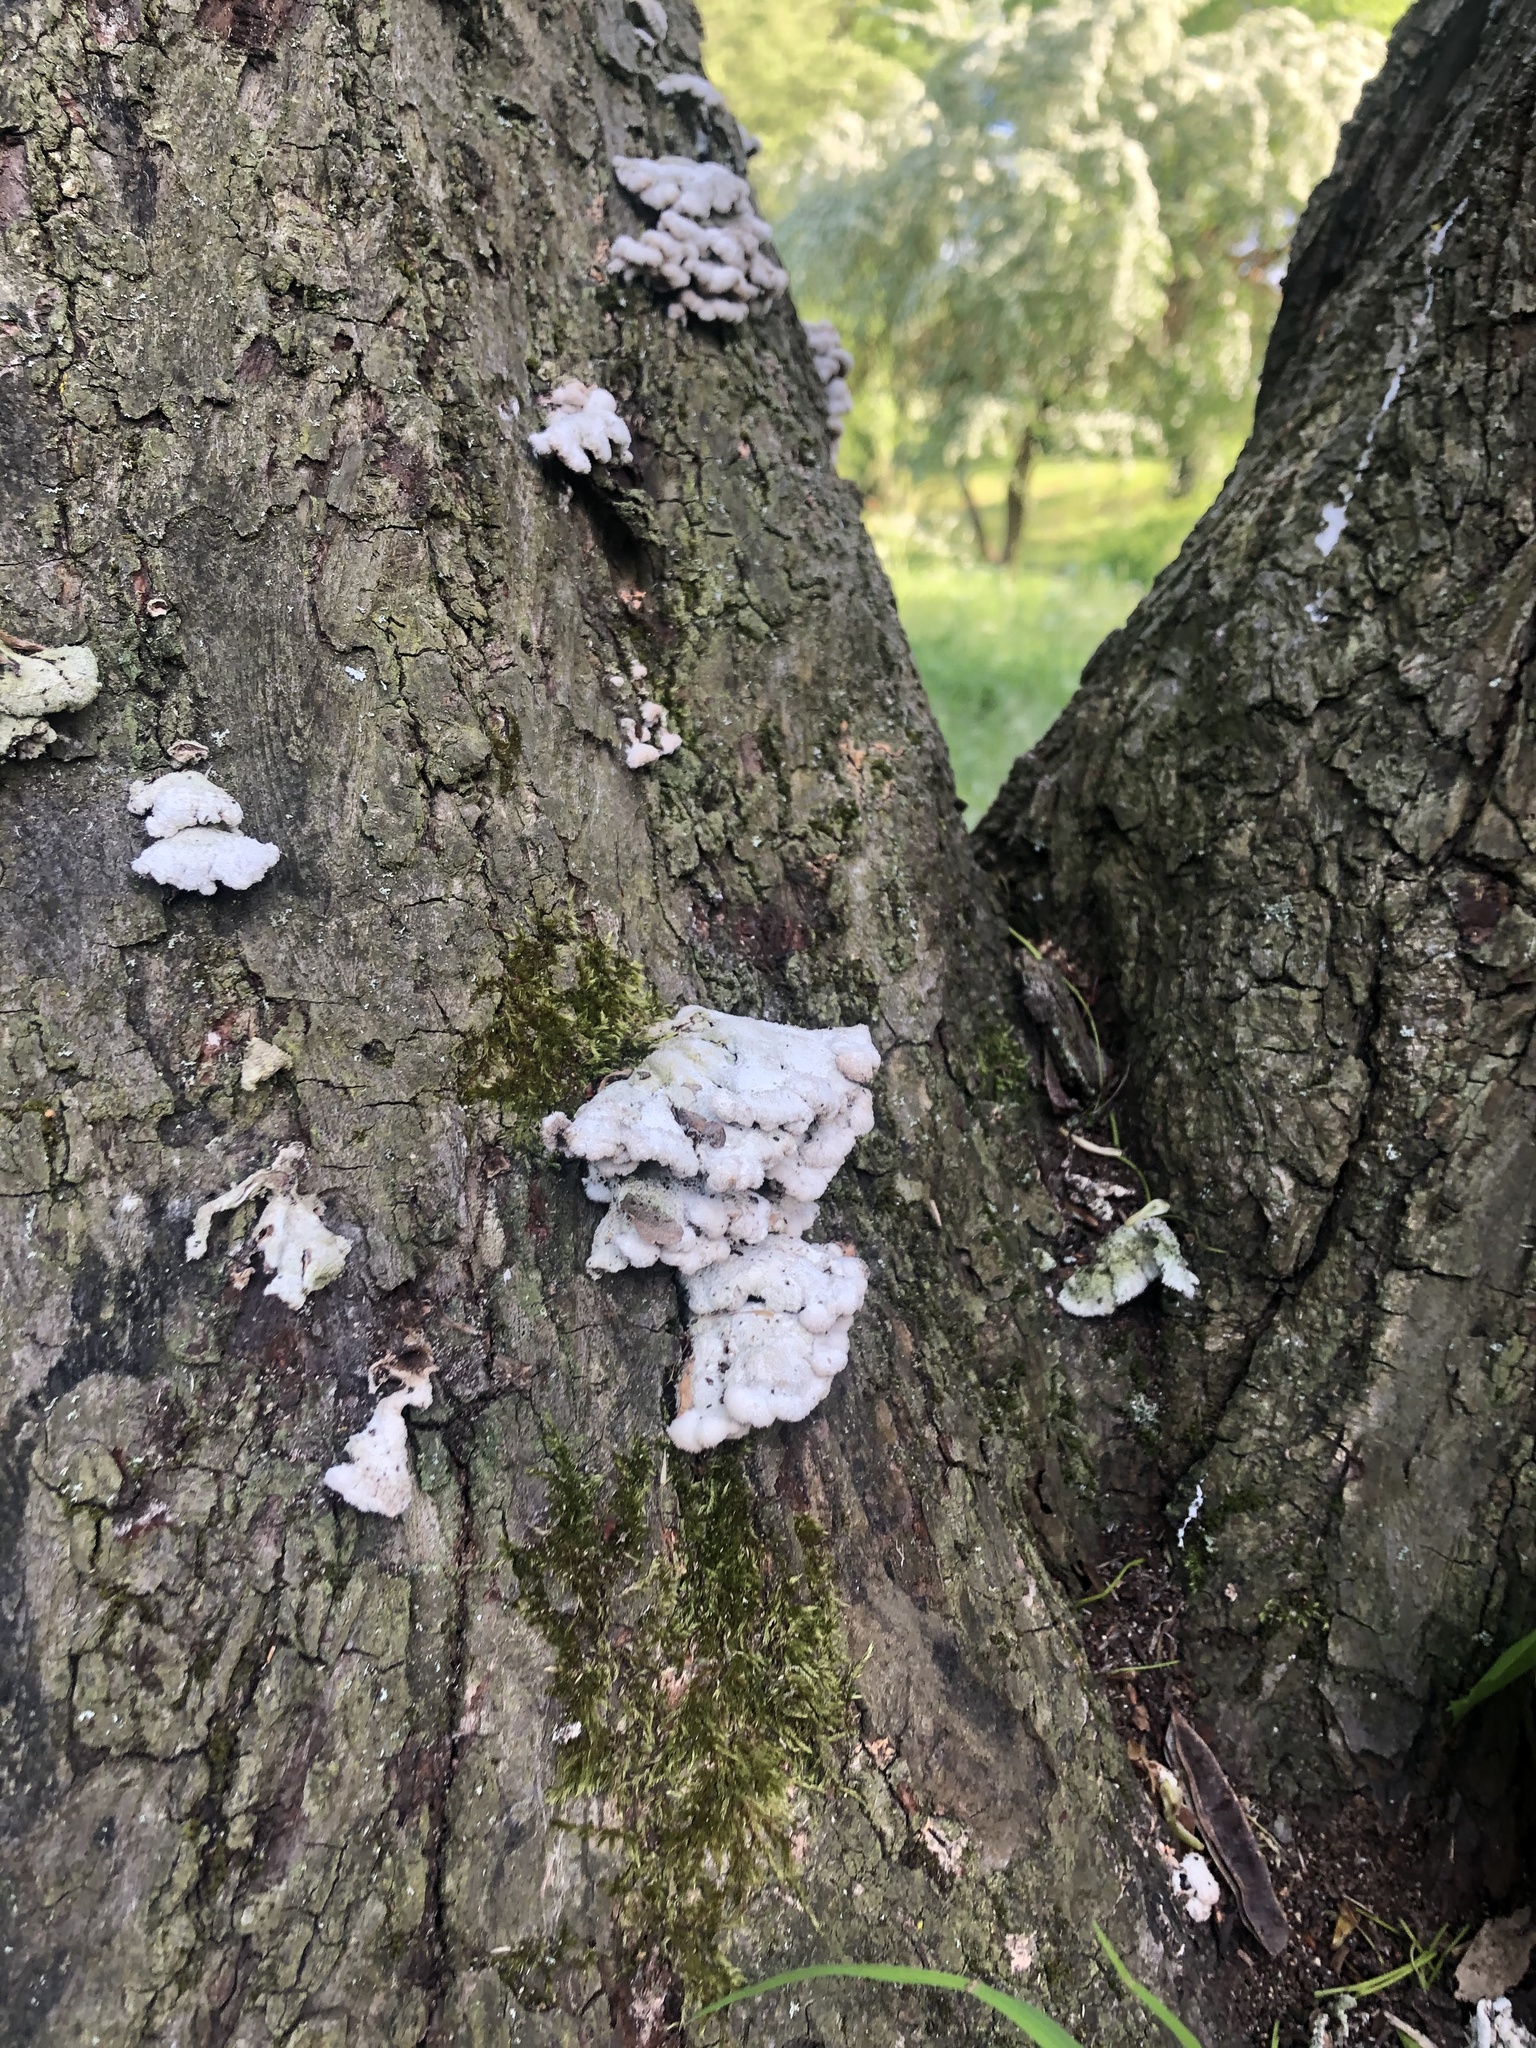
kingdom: Fungi
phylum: Basidiomycota
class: Agaricomycetes
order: Agaricales
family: Schizophyllaceae
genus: Schizophyllum
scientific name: Schizophyllum commune
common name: Common porecrust
